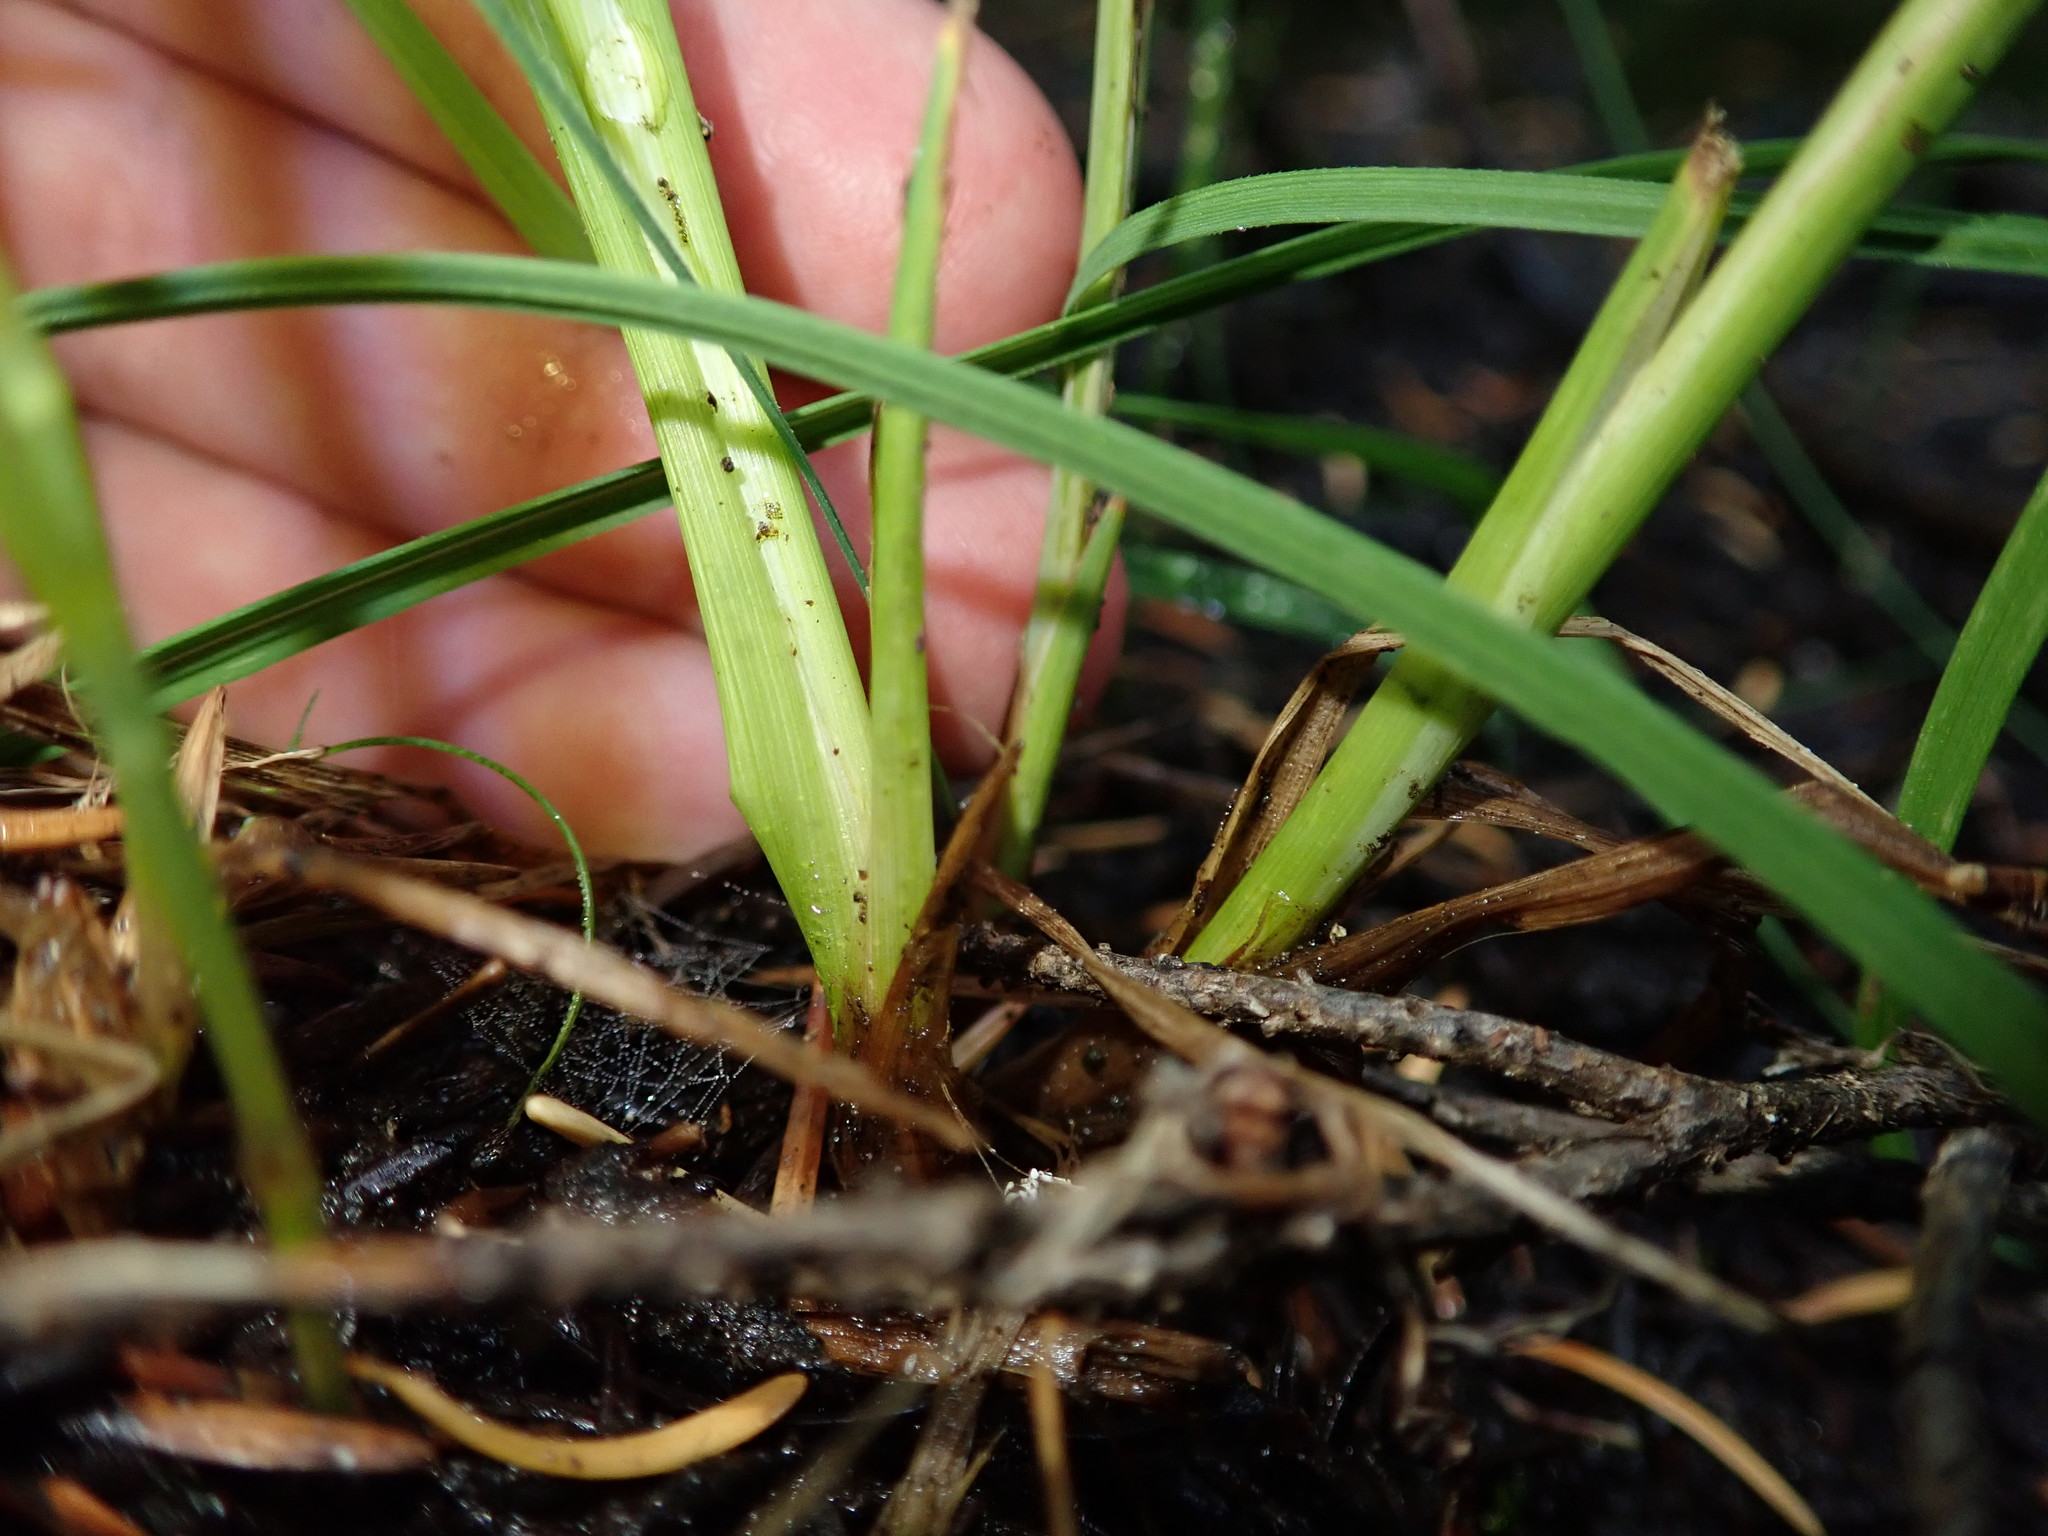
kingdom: Plantae
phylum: Tracheophyta
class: Liliopsida
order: Poales
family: Cyperaceae
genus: Carex
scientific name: Carex kelloggii
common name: Kellogg's sedge
